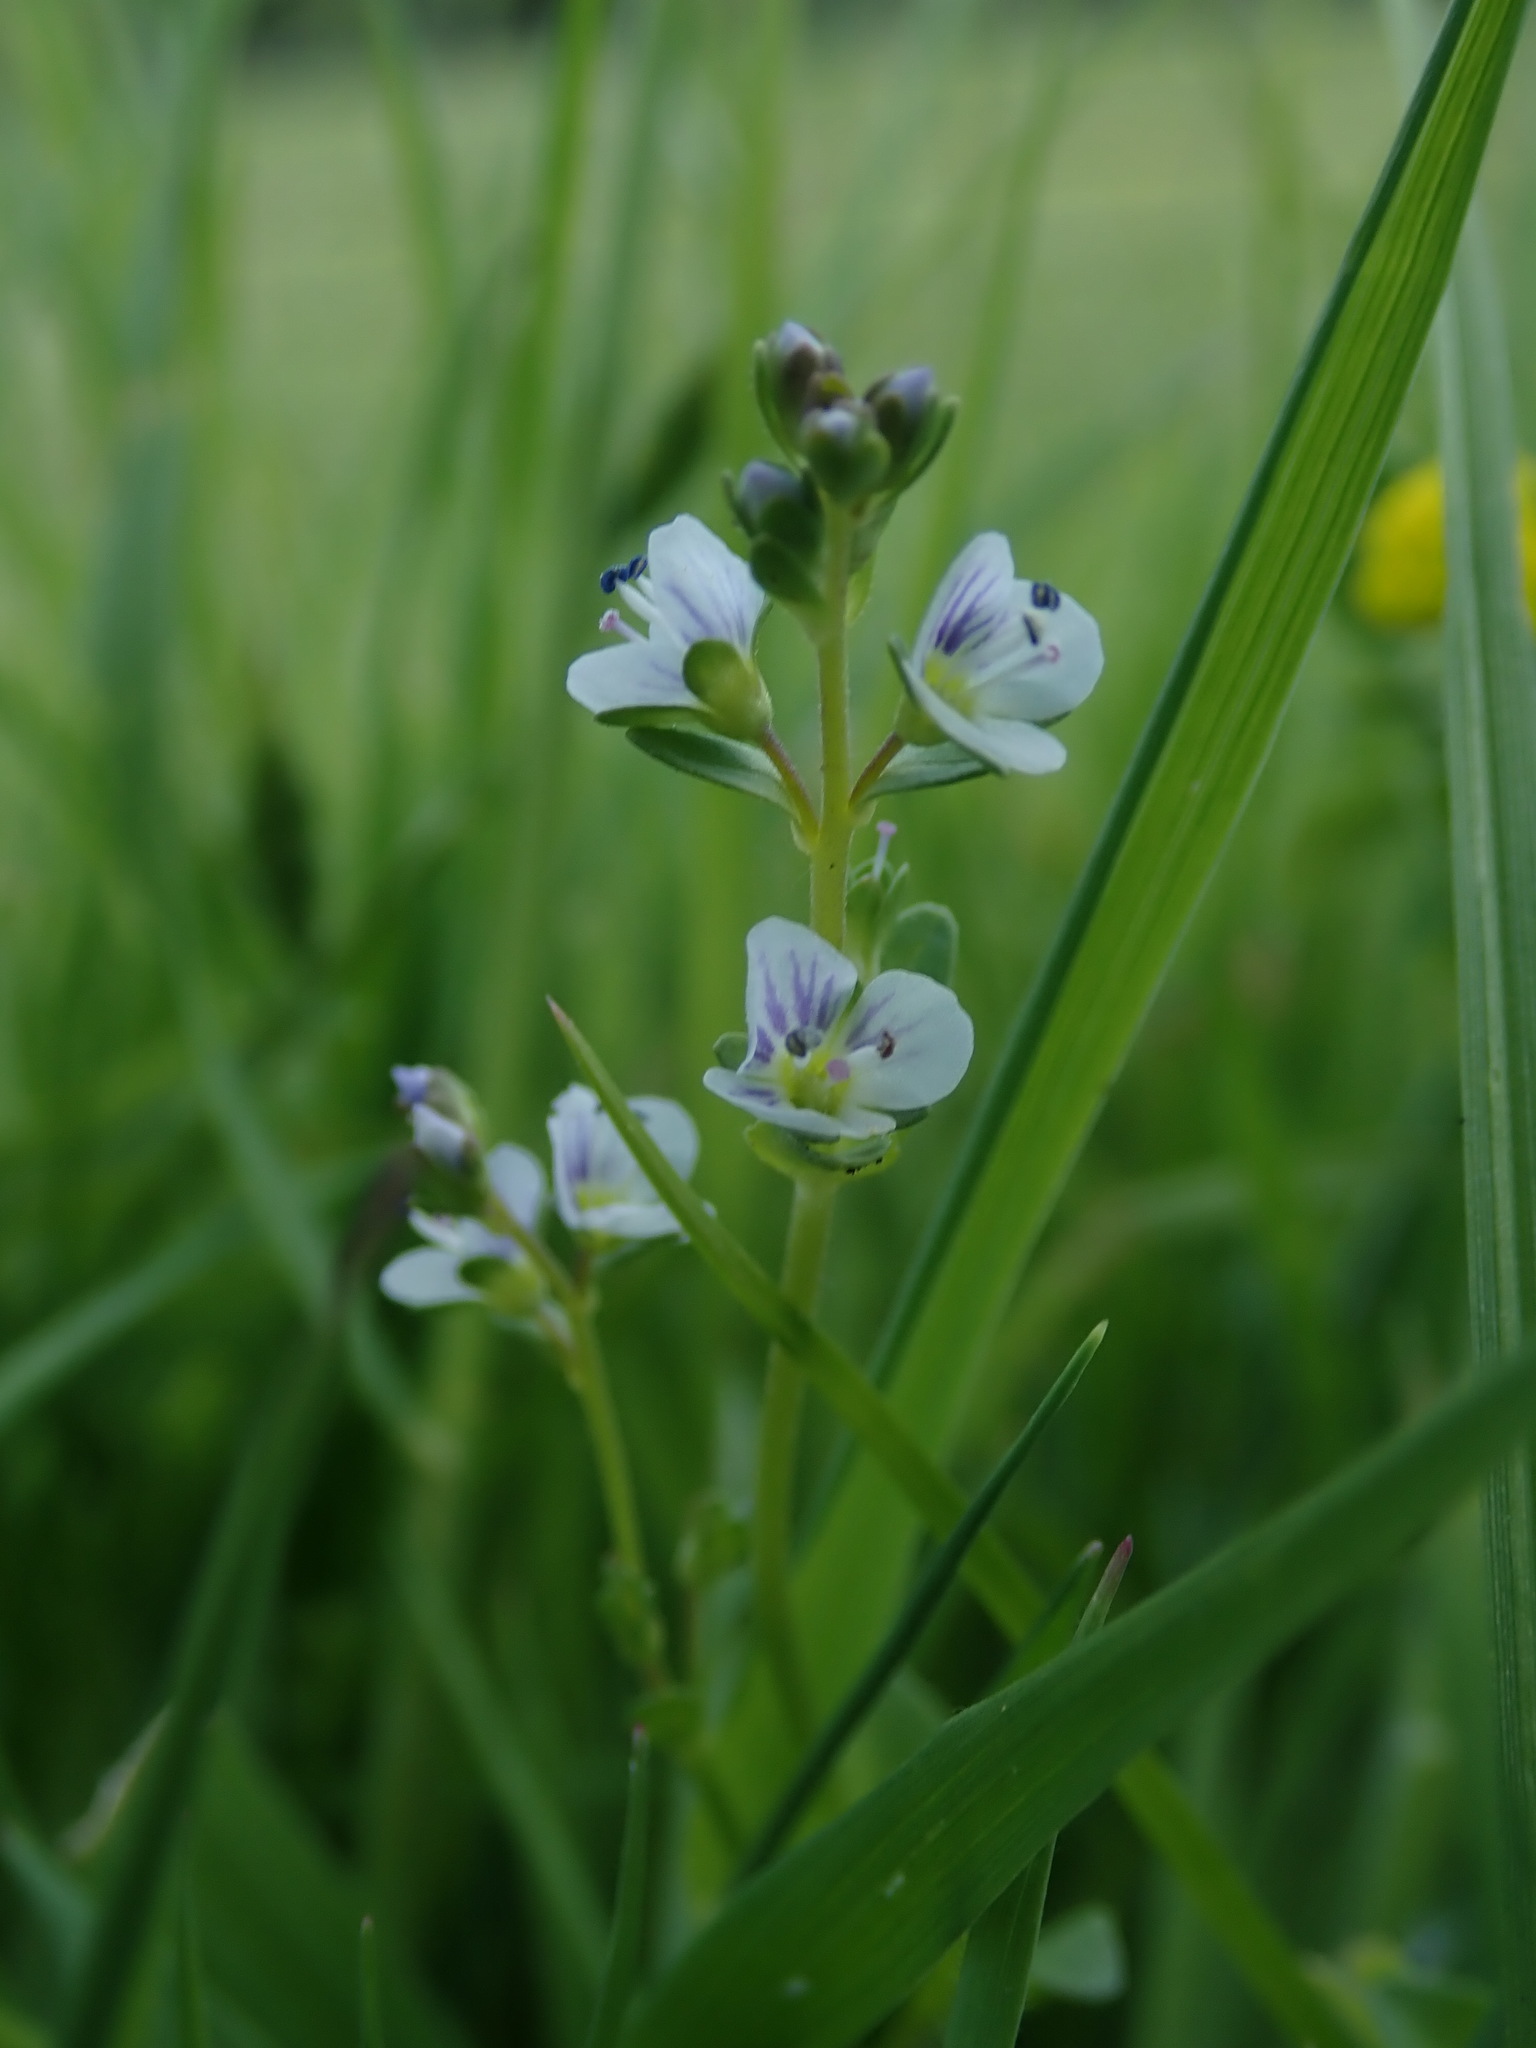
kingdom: Plantae
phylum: Tracheophyta
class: Magnoliopsida
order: Lamiales
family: Plantaginaceae
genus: Veronica
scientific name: Veronica serpyllifolia
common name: Thyme-leaved speedwell
